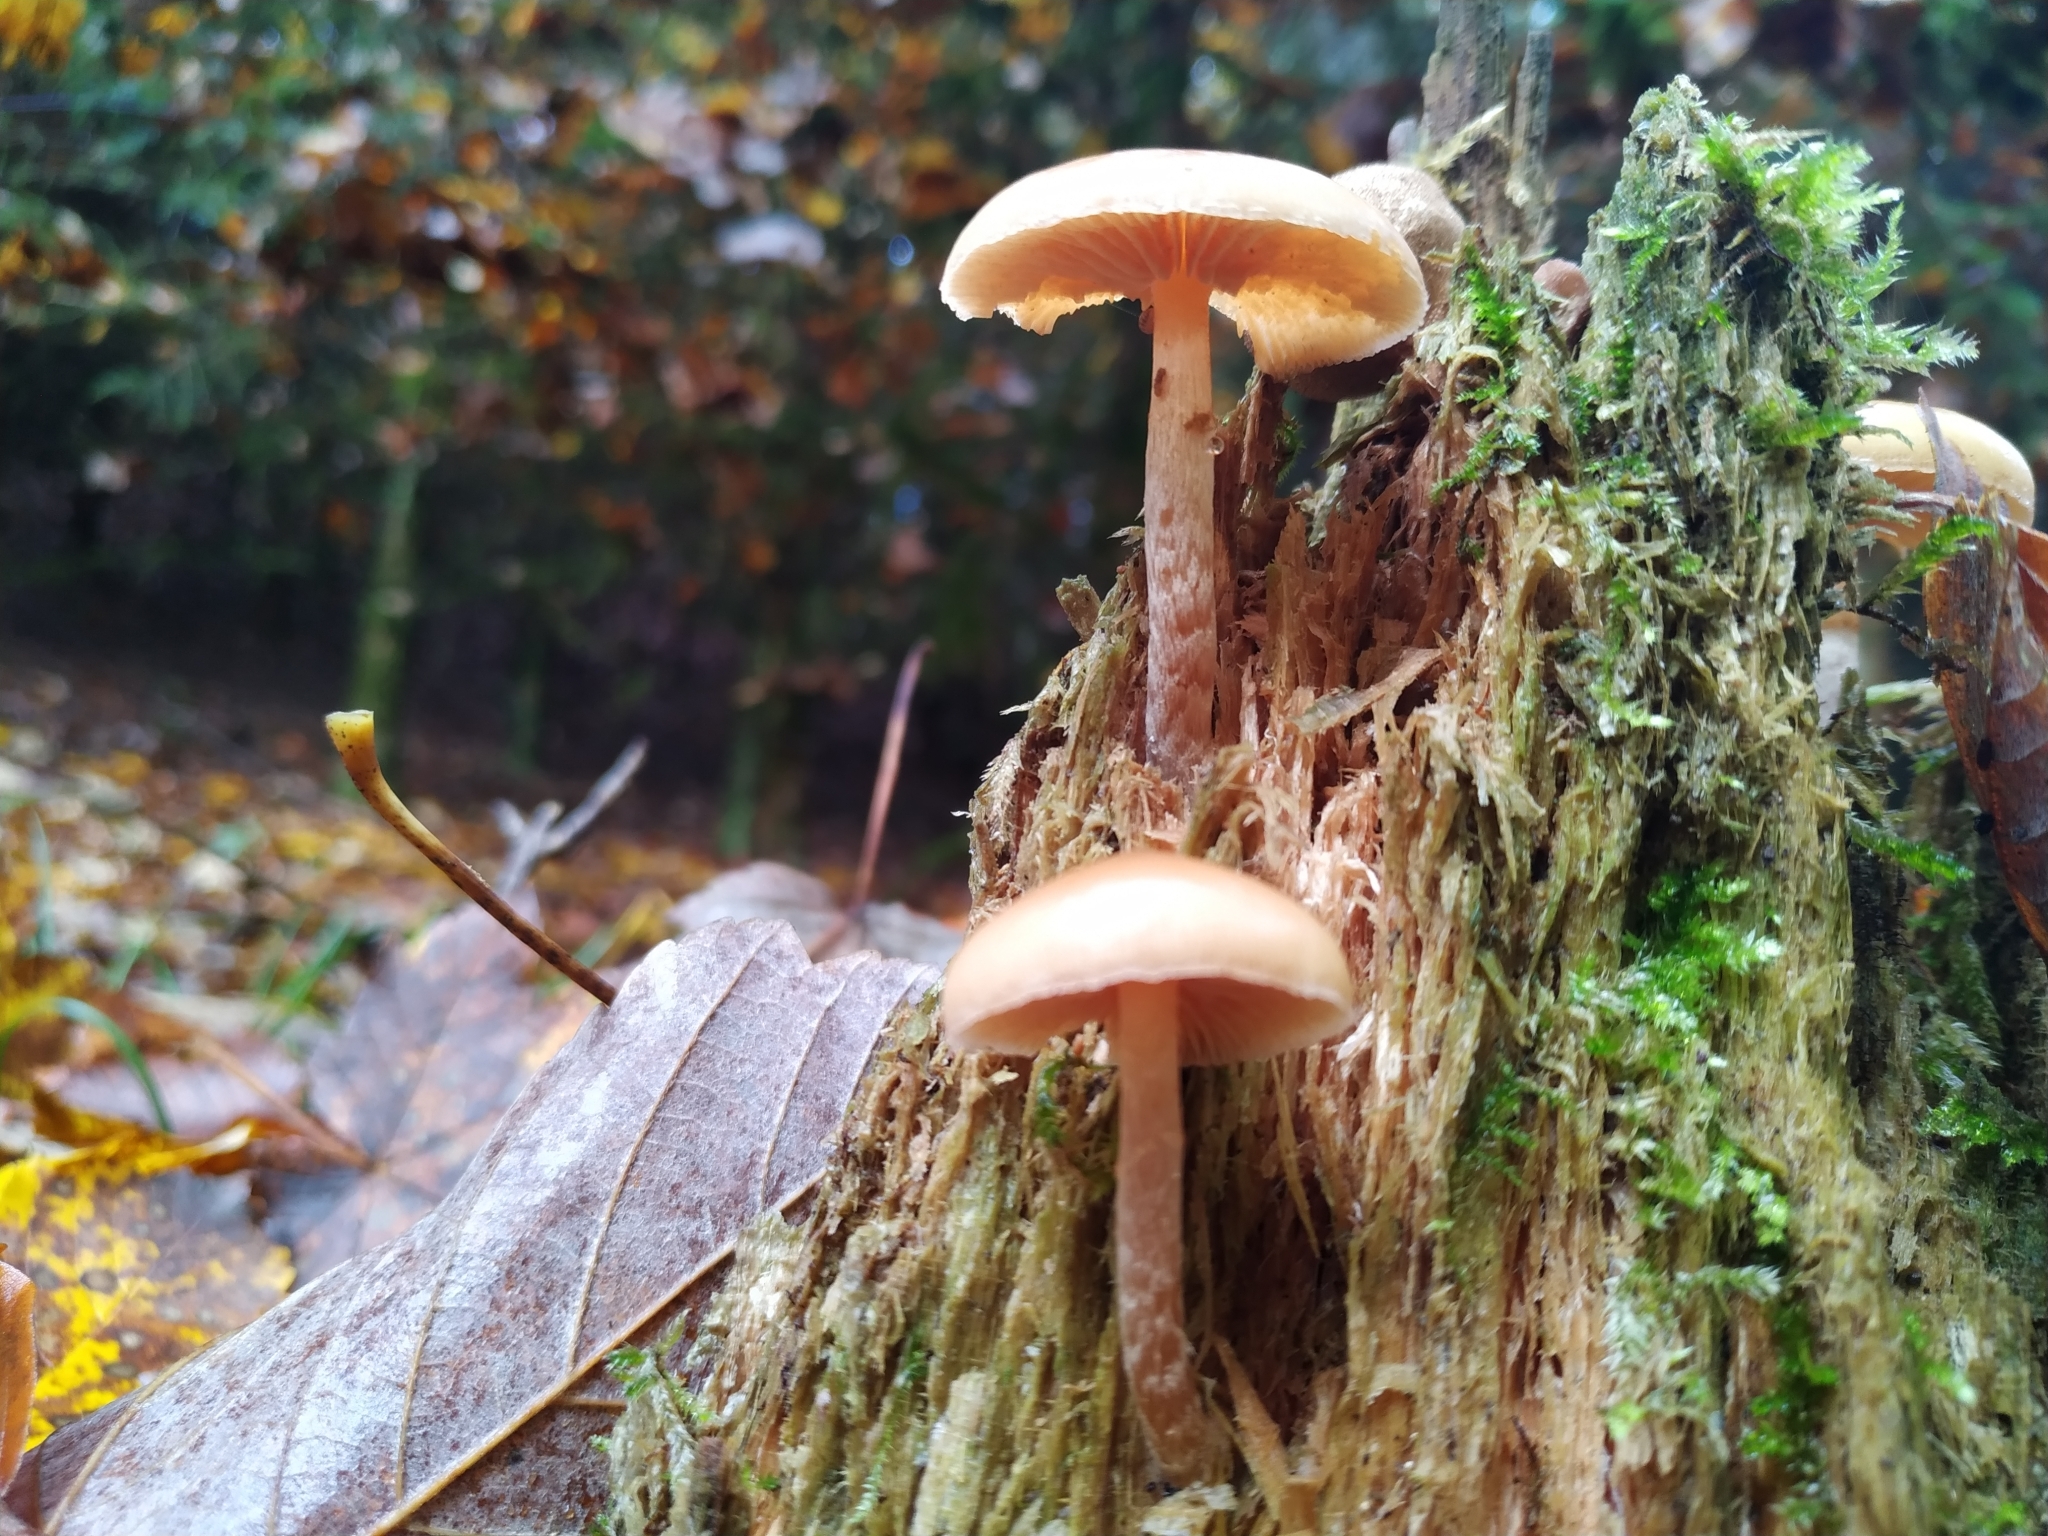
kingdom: Fungi
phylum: Basidiomycota
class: Agaricomycetes
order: Agaricales
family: Hymenogastraceae
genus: Galerina
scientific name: Galerina marginata
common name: Funeral bell
